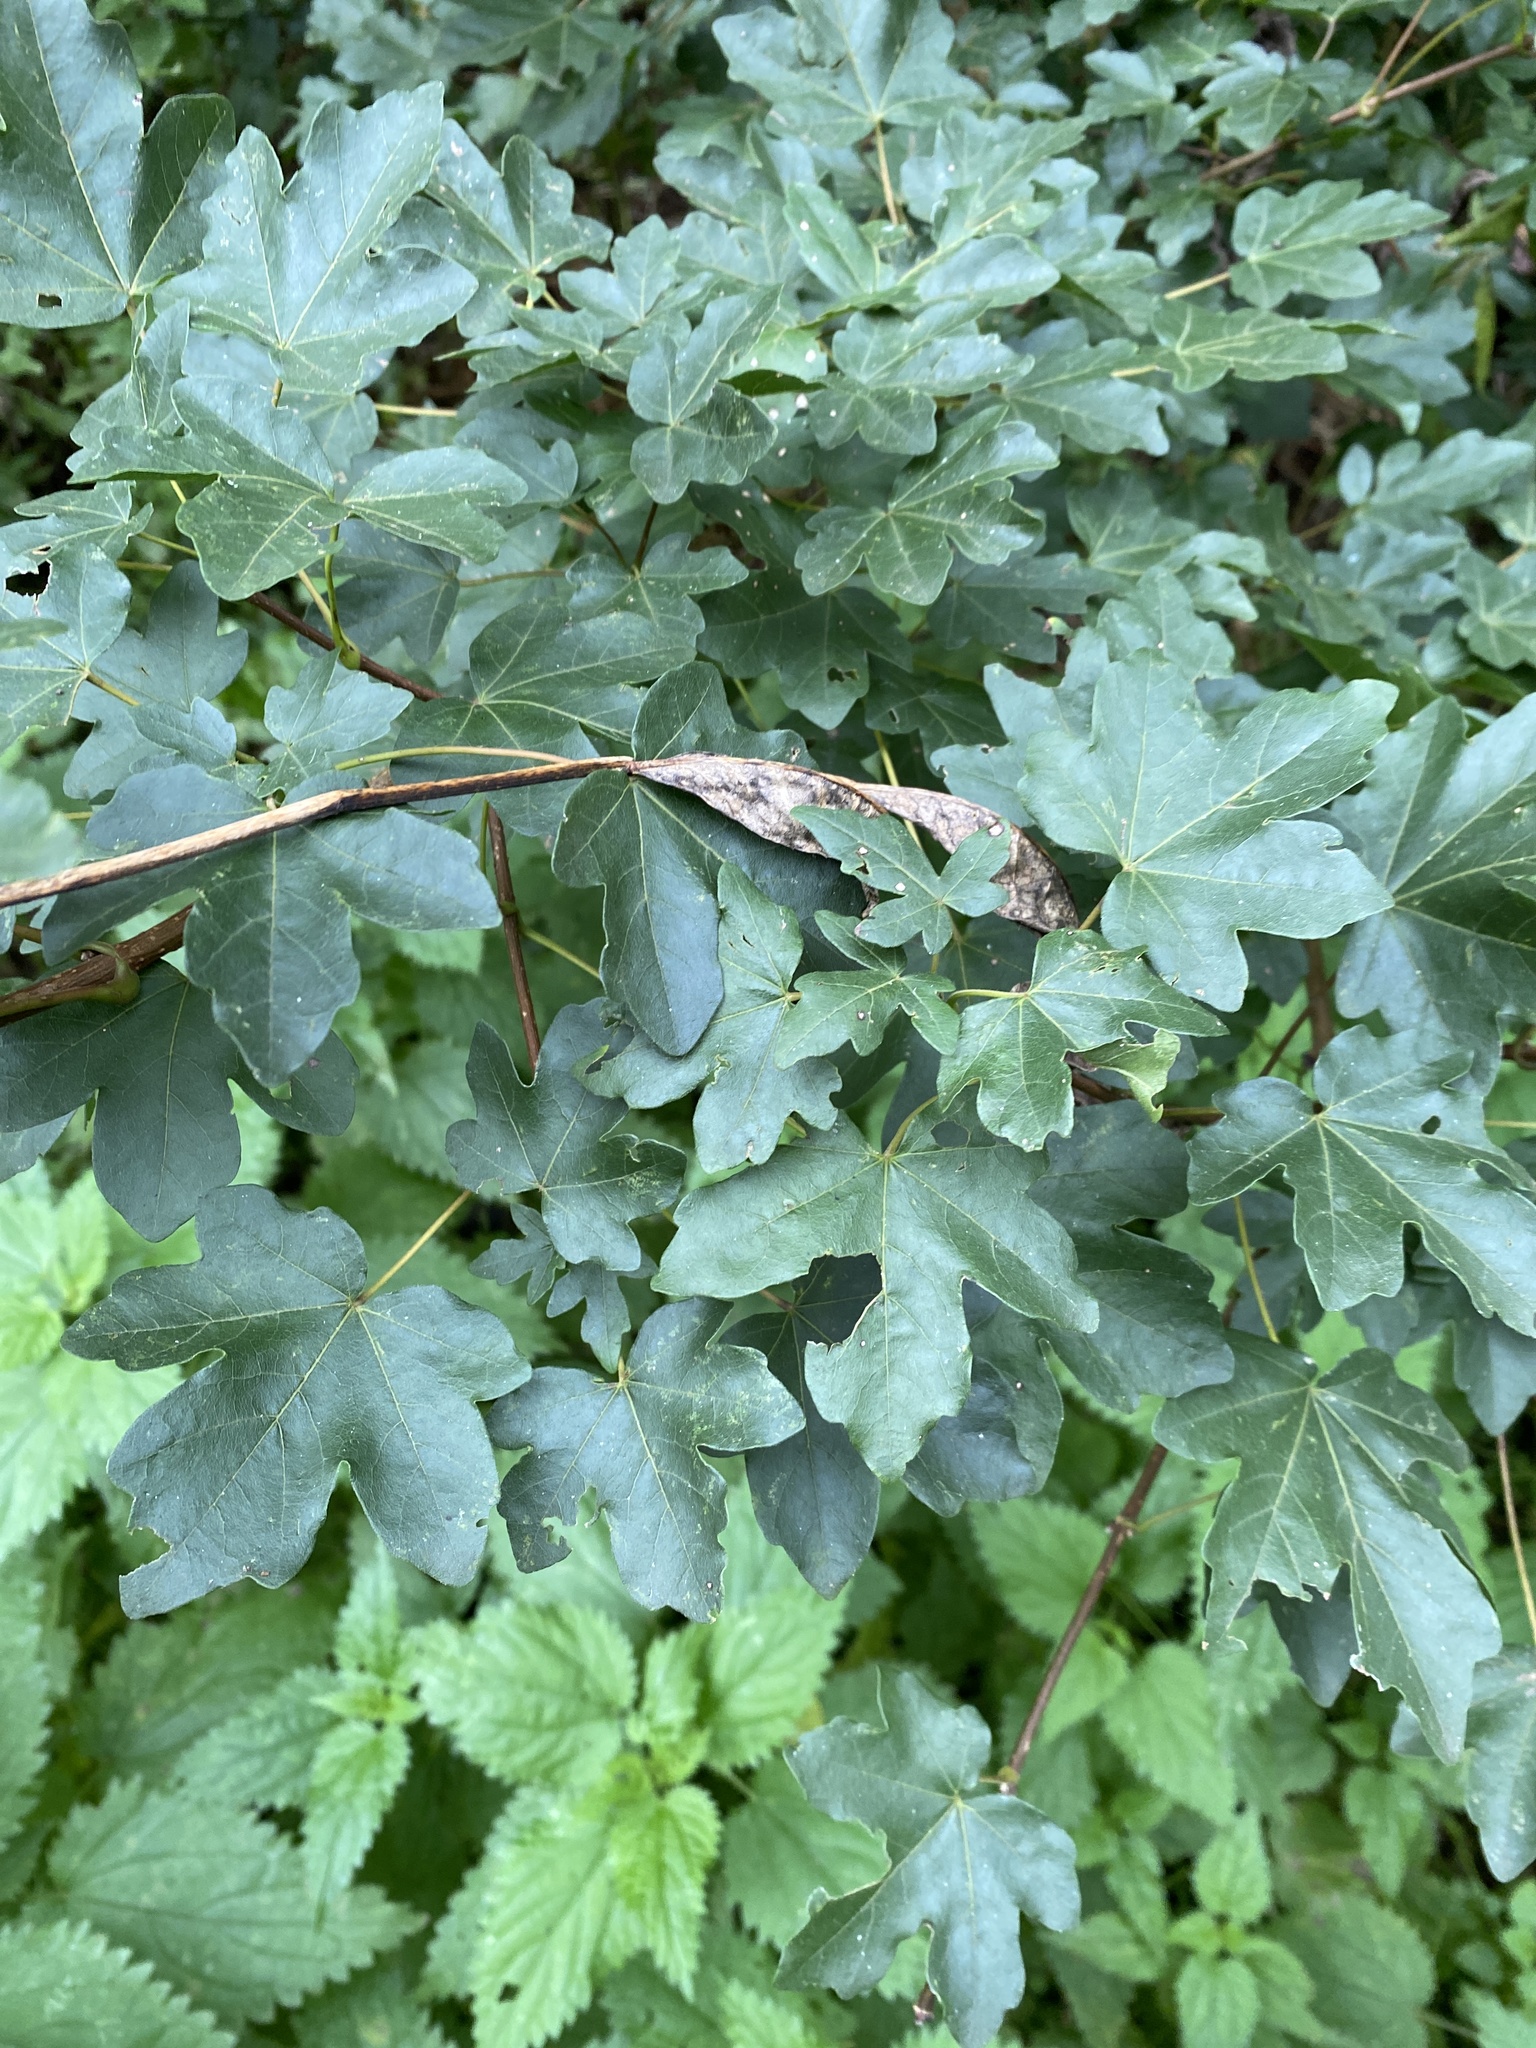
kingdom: Plantae
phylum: Tracheophyta
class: Magnoliopsida
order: Sapindales
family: Sapindaceae
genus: Acer
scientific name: Acer campestre
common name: Field maple
